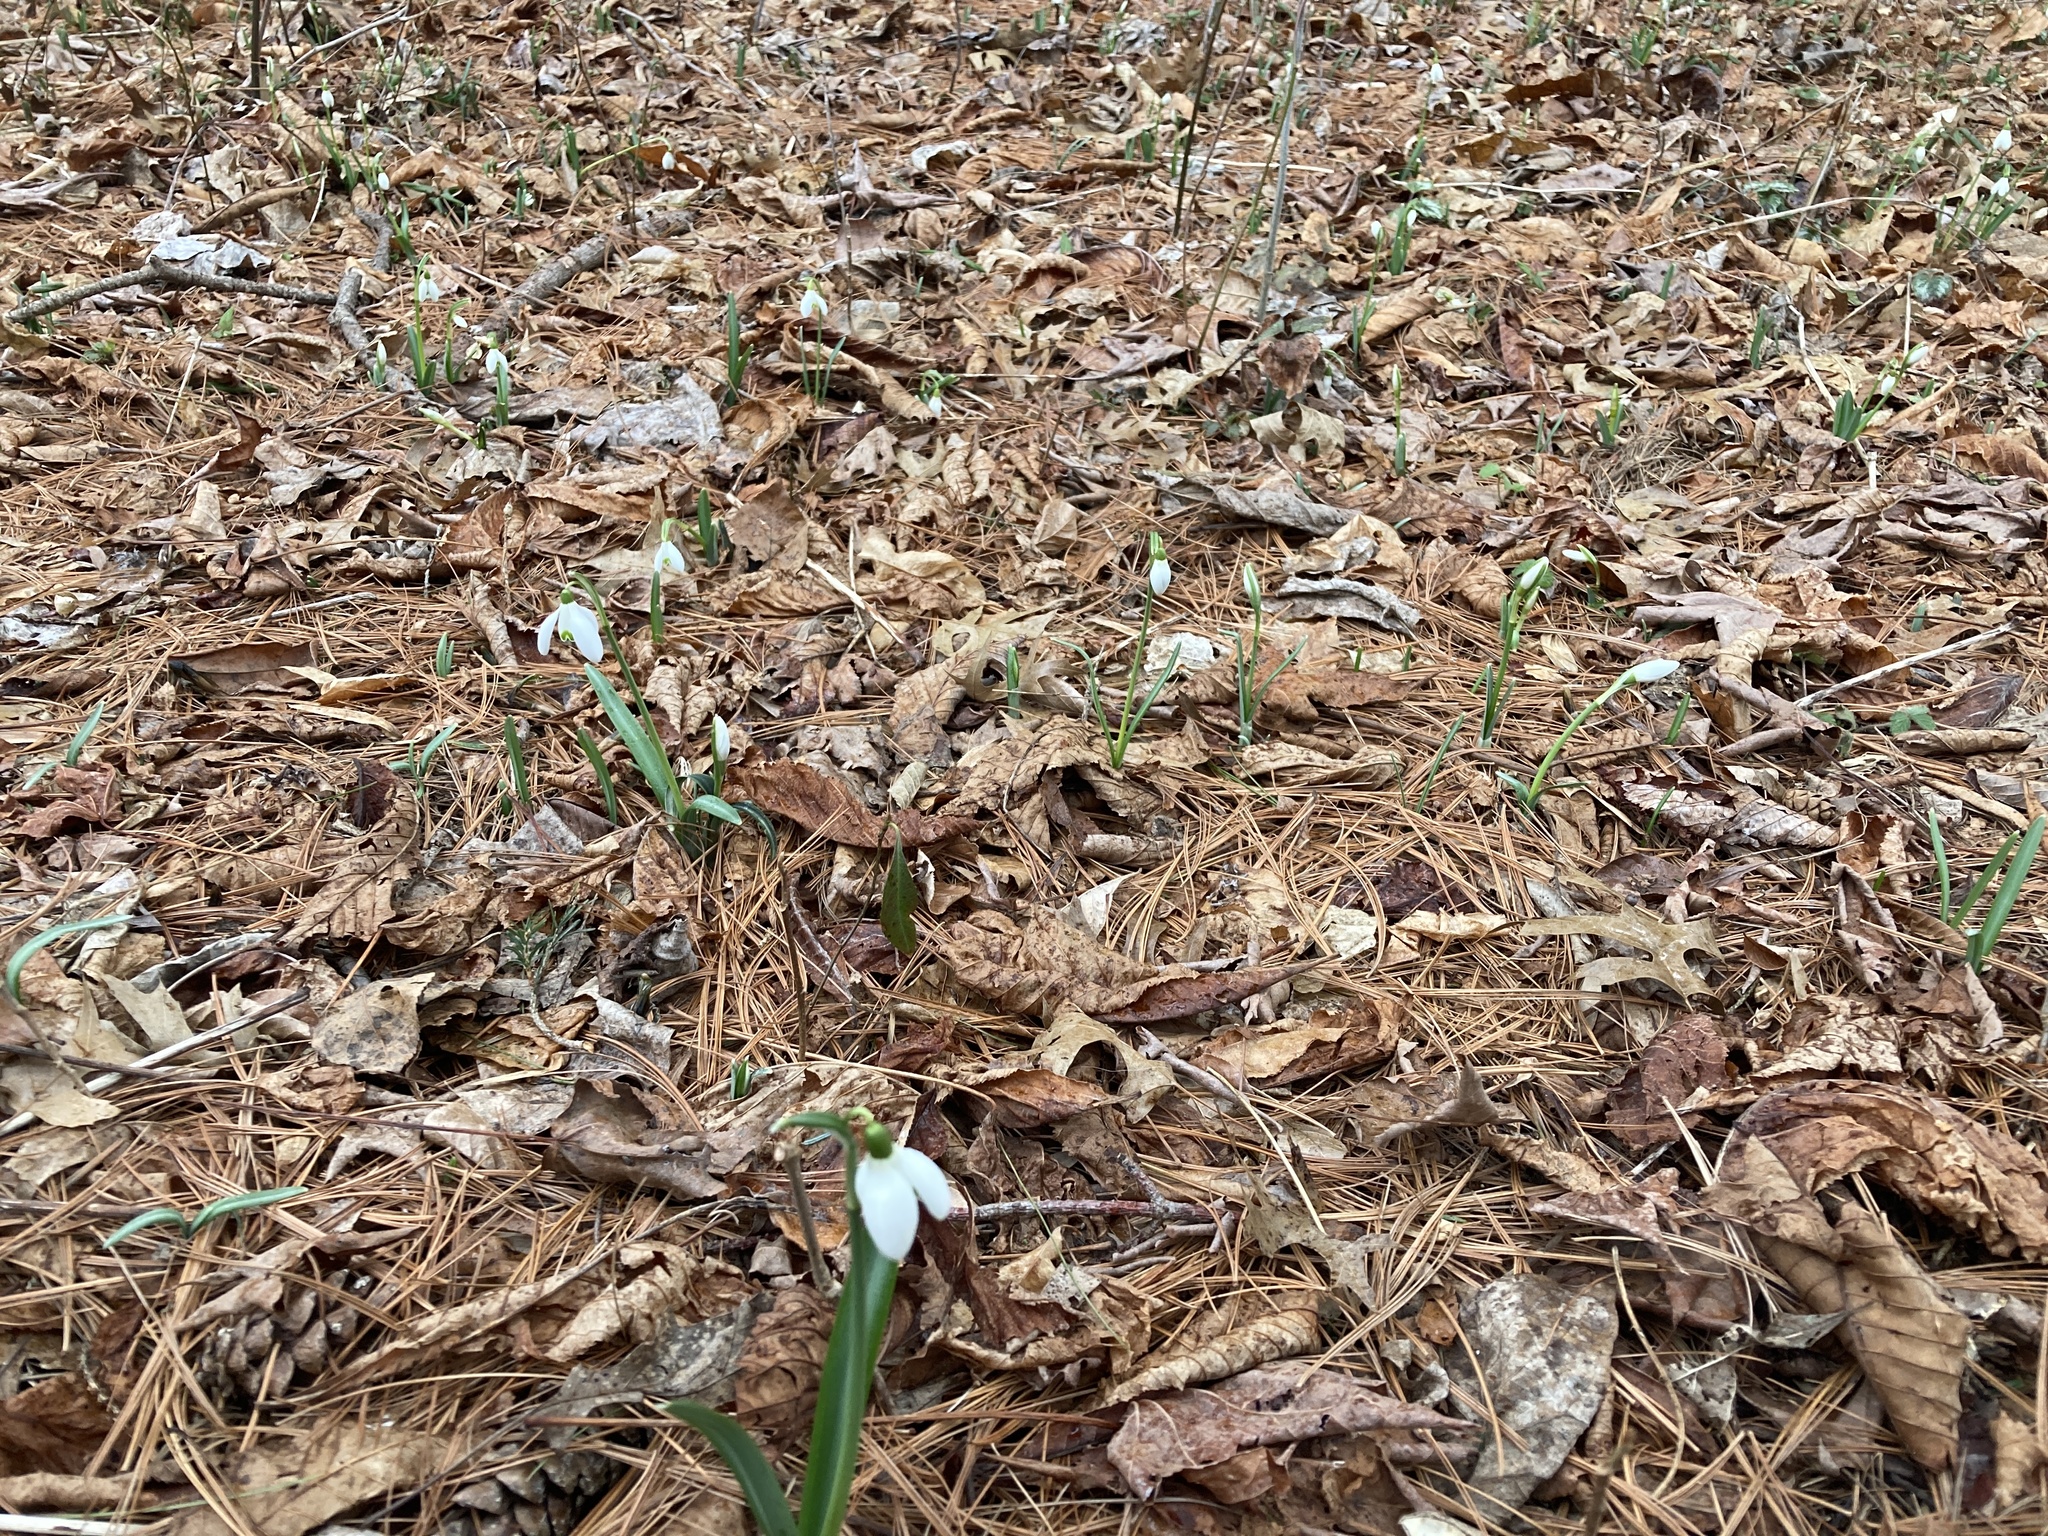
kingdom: Plantae
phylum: Tracheophyta
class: Liliopsida
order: Asparagales
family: Amaryllidaceae
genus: Galanthus
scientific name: Galanthus nivalis
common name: Snowdrop
